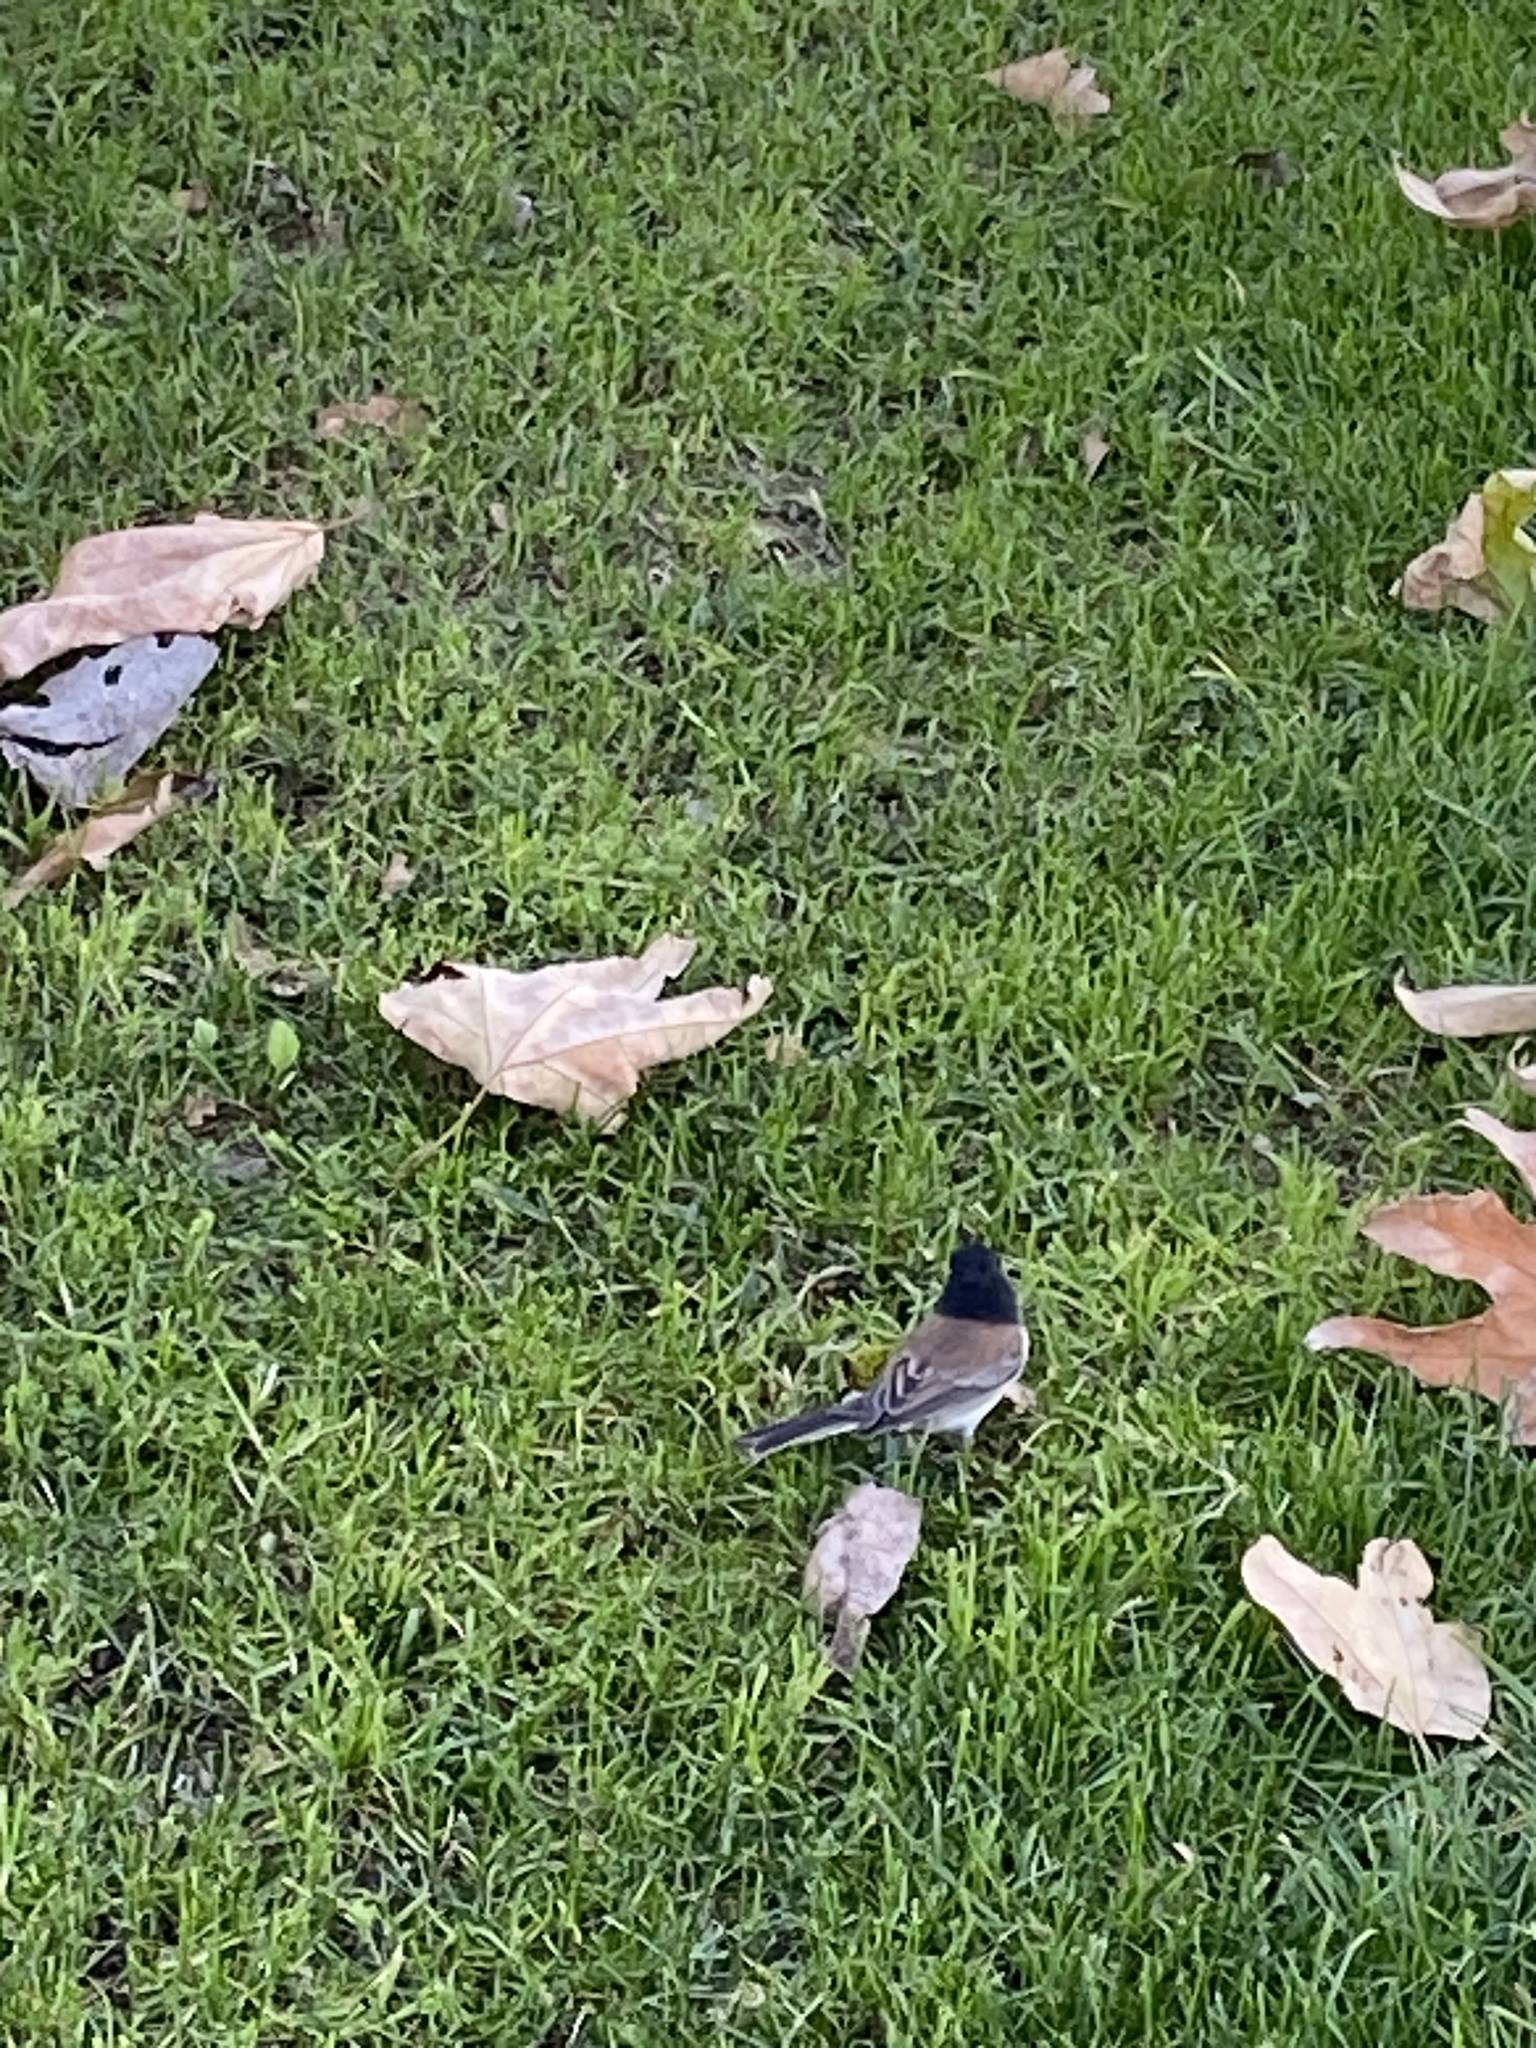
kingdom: Animalia
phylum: Chordata
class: Aves
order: Passeriformes
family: Passerellidae
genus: Junco
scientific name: Junco hyemalis
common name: Dark-eyed junco
